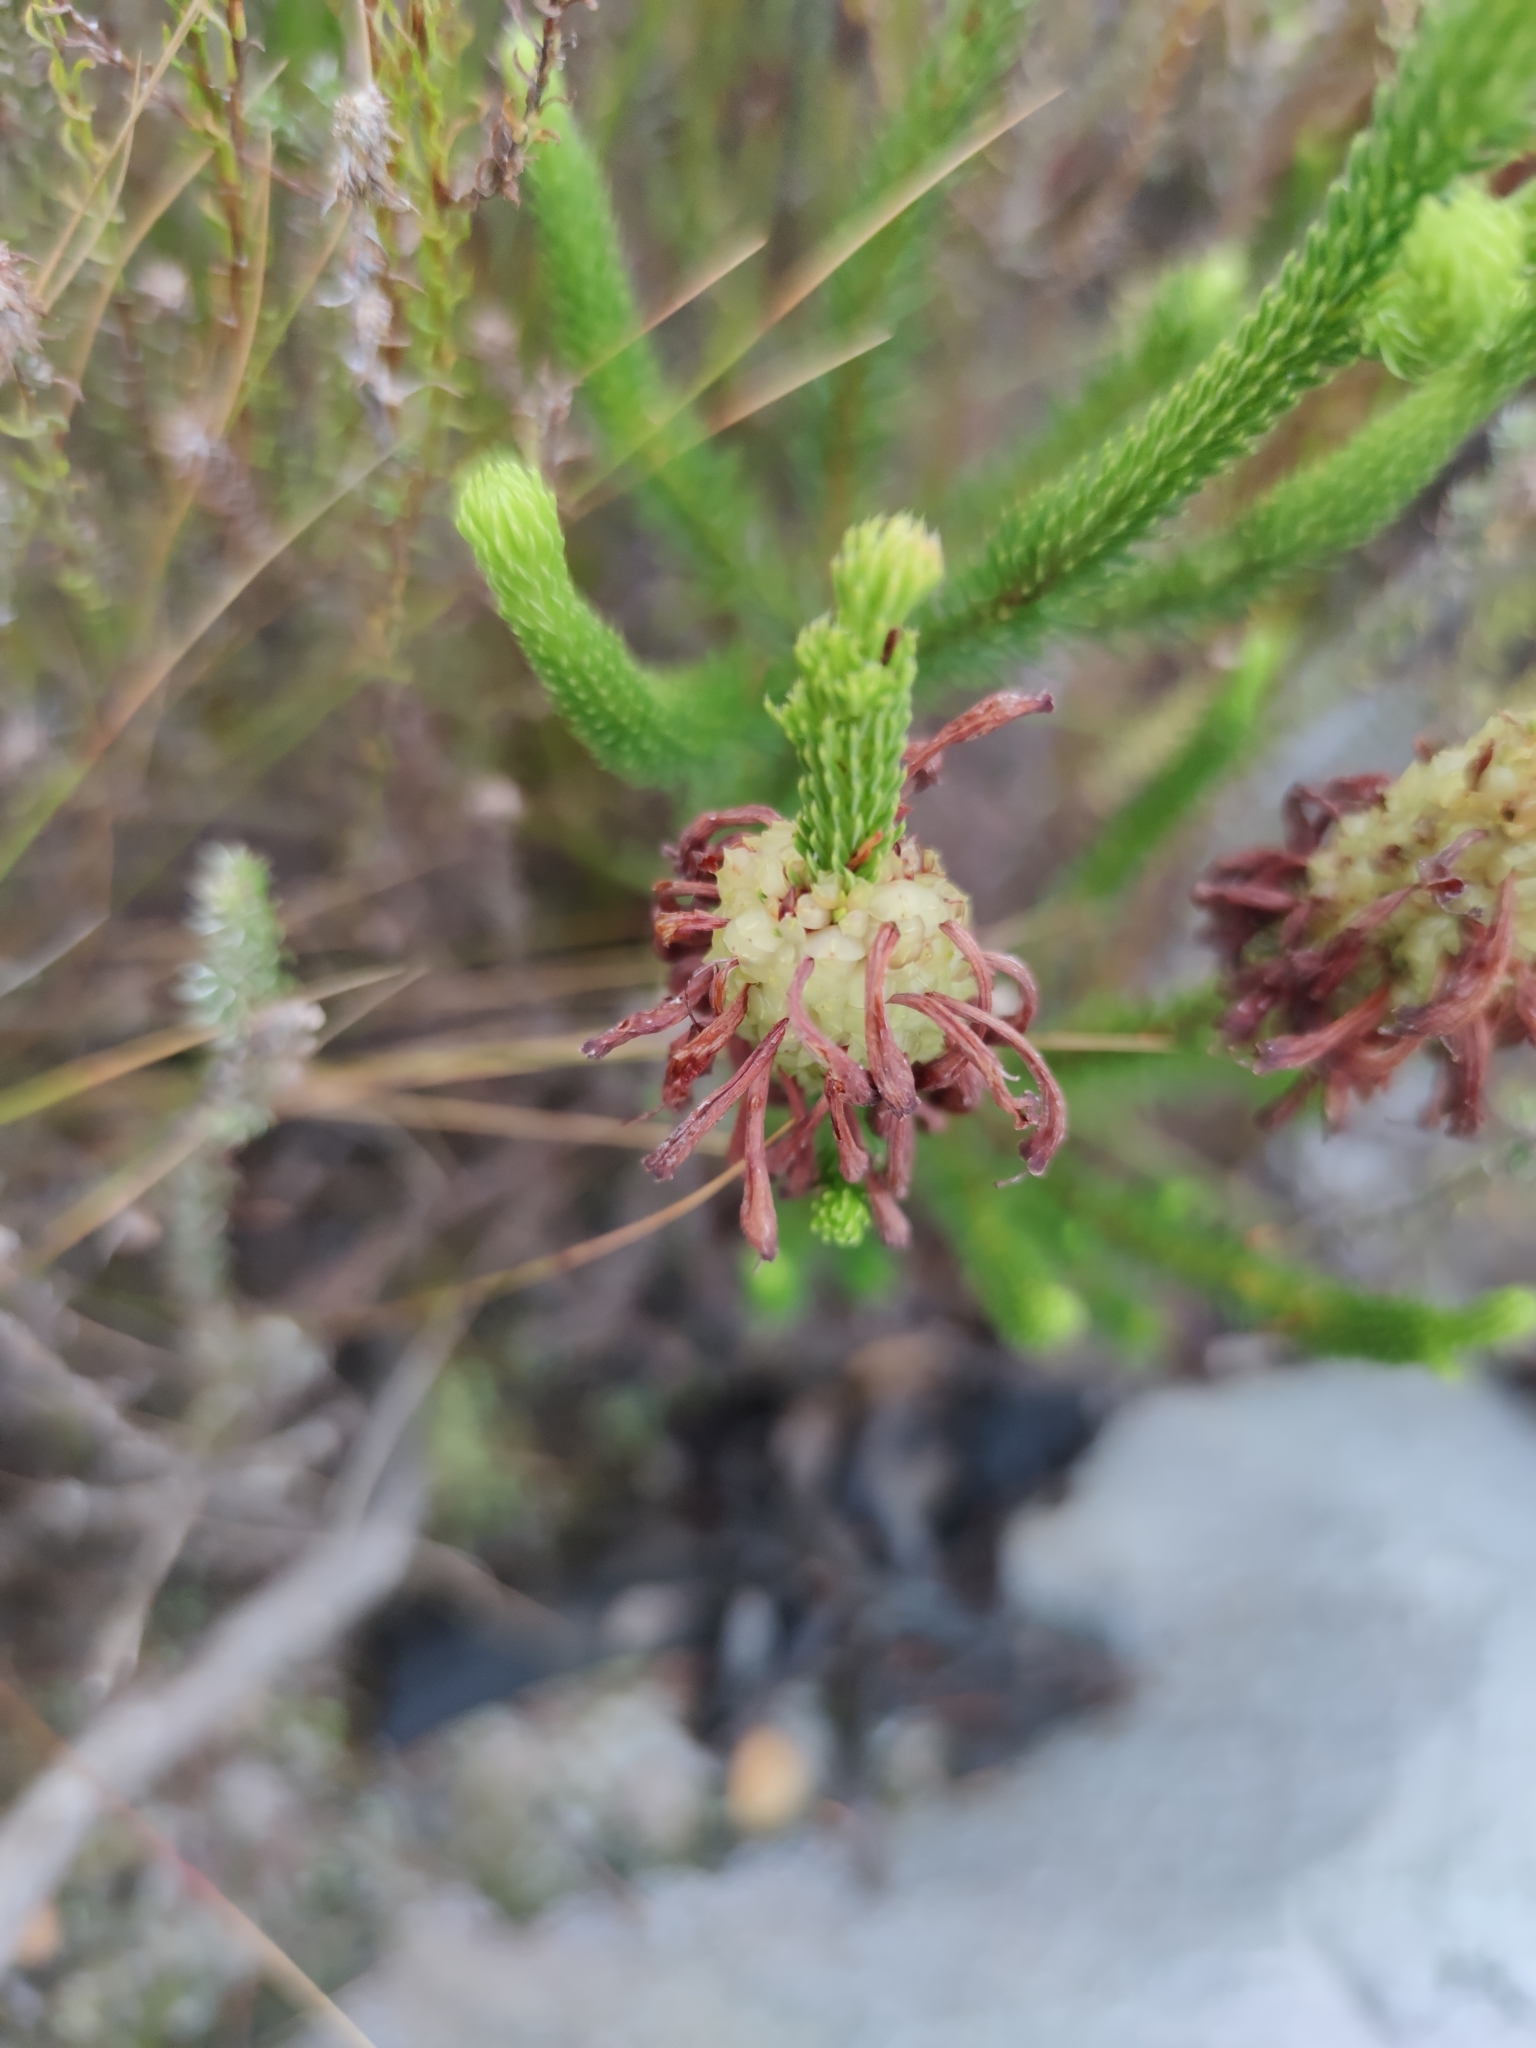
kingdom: Plantae
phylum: Tracheophyta
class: Magnoliopsida
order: Ericales
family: Ericaceae
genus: Erica
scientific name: Erica sessiliflora
